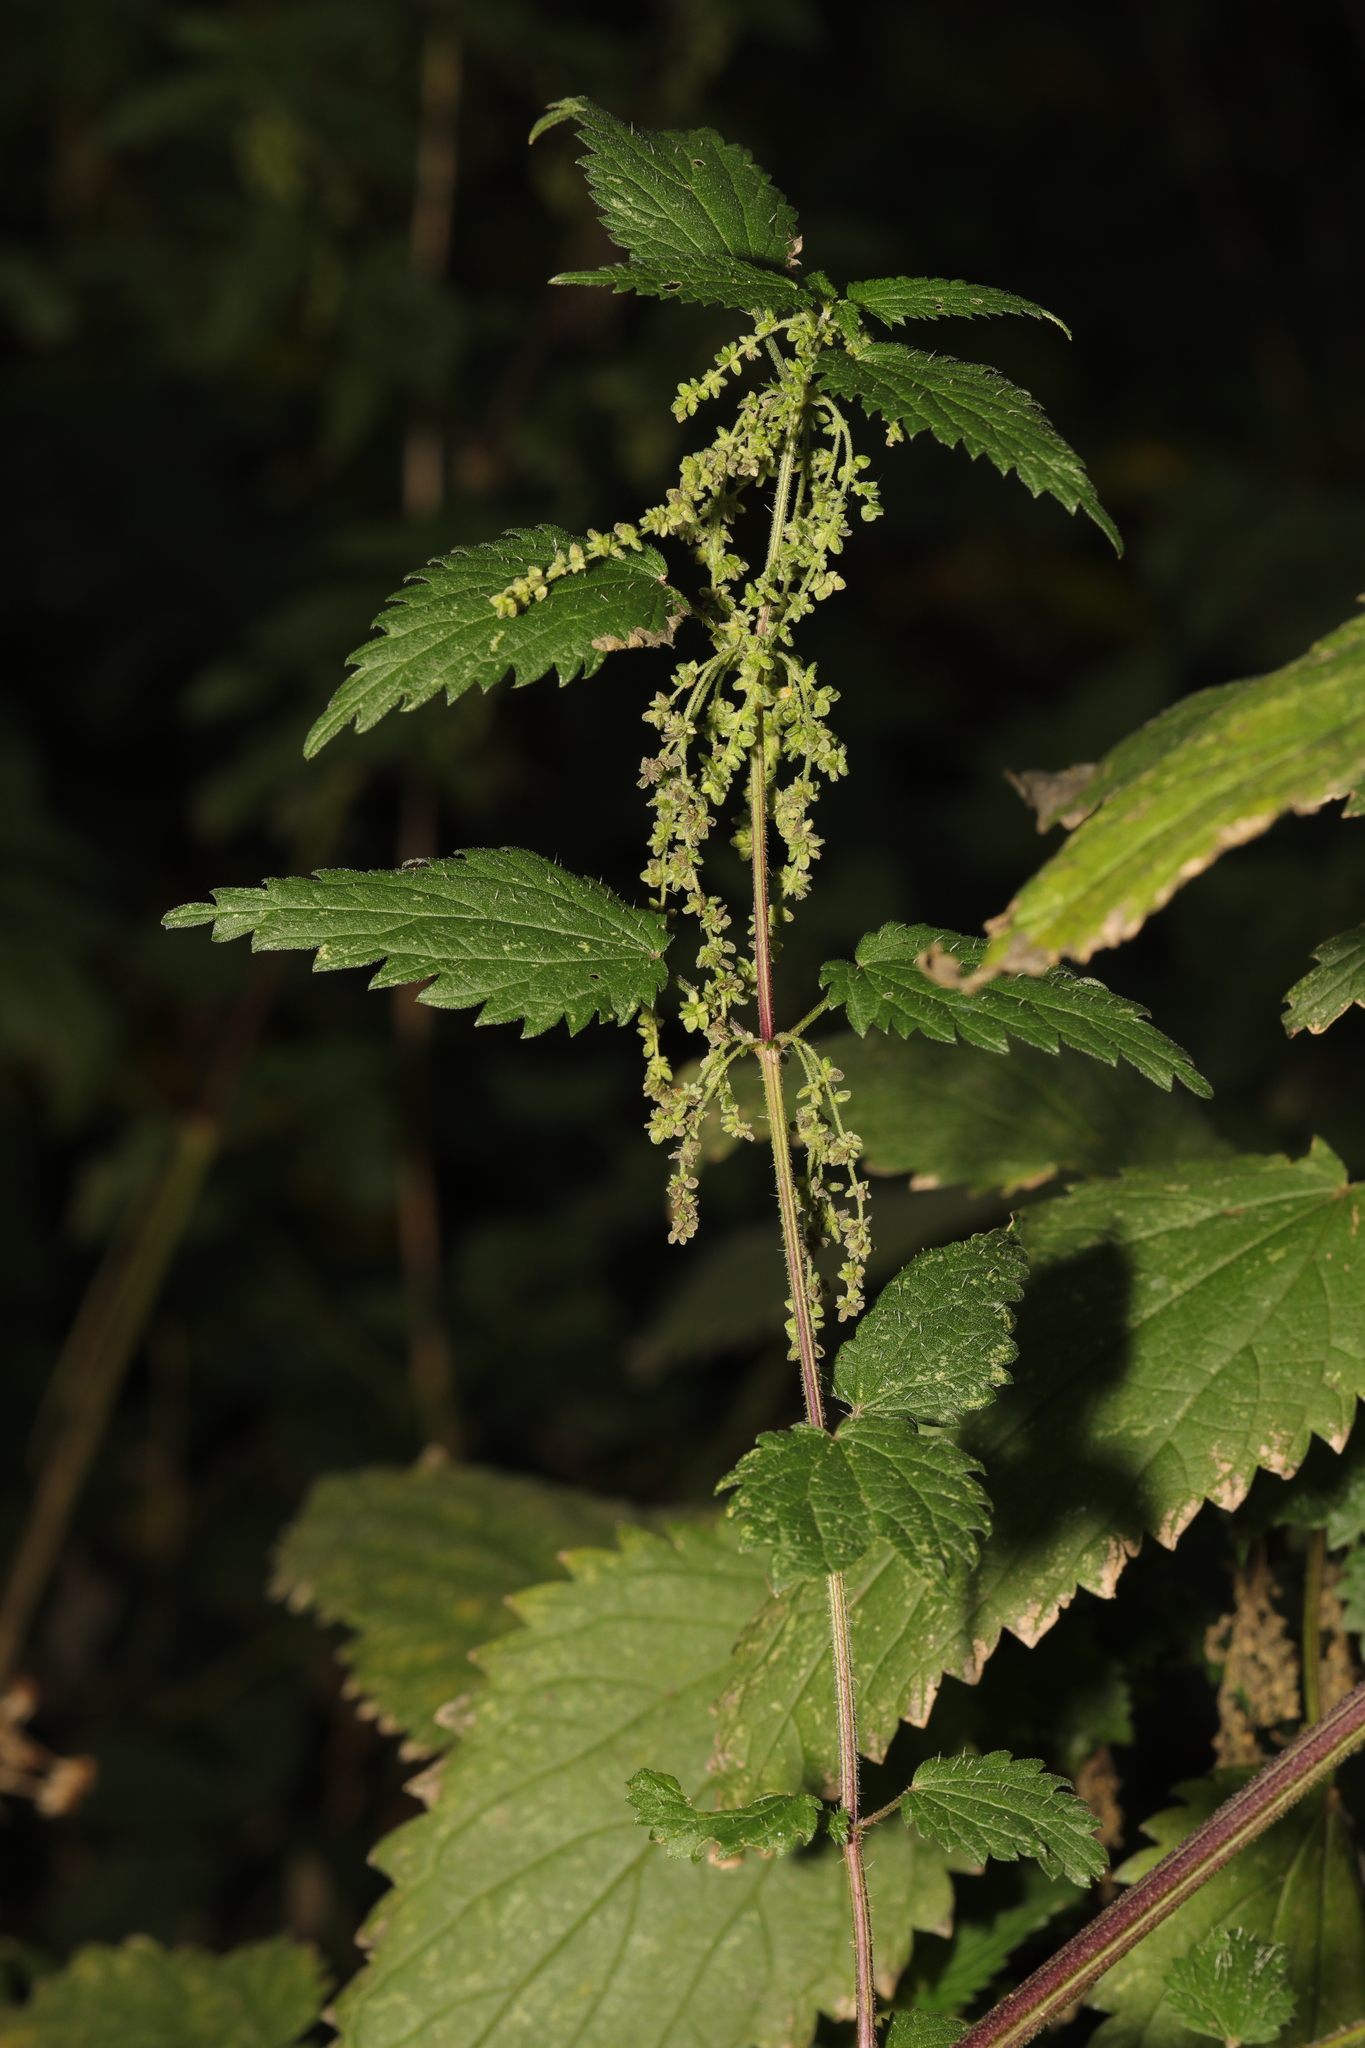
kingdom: Plantae
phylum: Tracheophyta
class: Magnoliopsida
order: Rosales
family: Urticaceae
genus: Urtica
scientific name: Urtica dioica
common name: Common nettle
